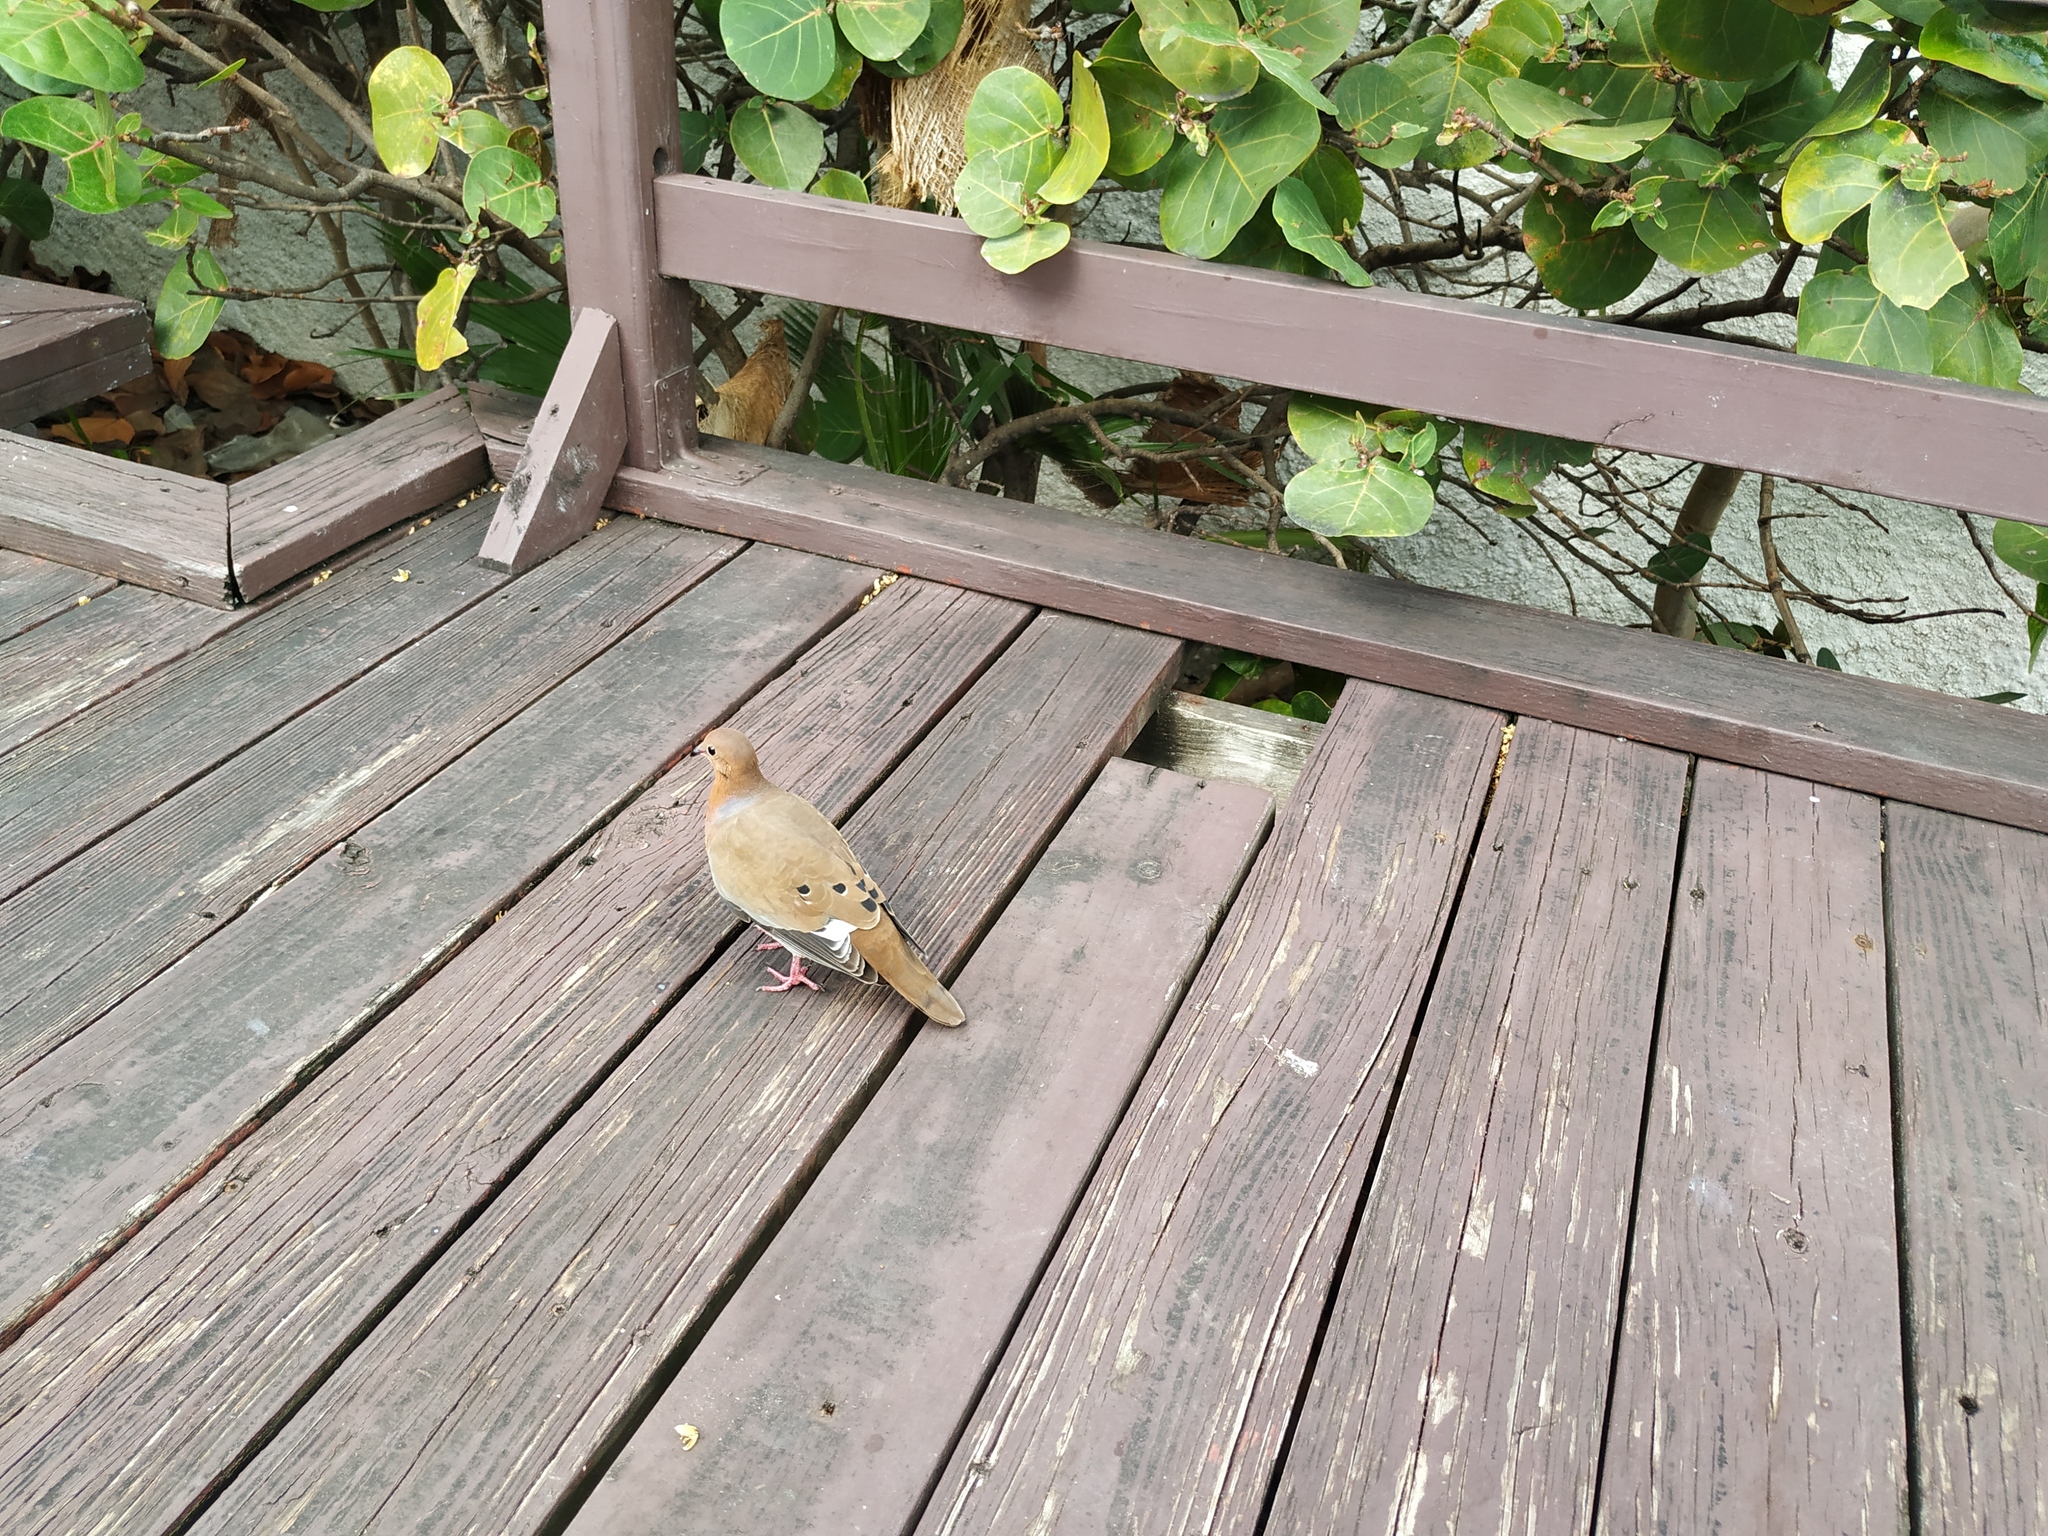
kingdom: Animalia
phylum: Chordata
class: Aves
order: Columbiformes
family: Columbidae
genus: Zenaida
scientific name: Zenaida aurita
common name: Zenaida dove
